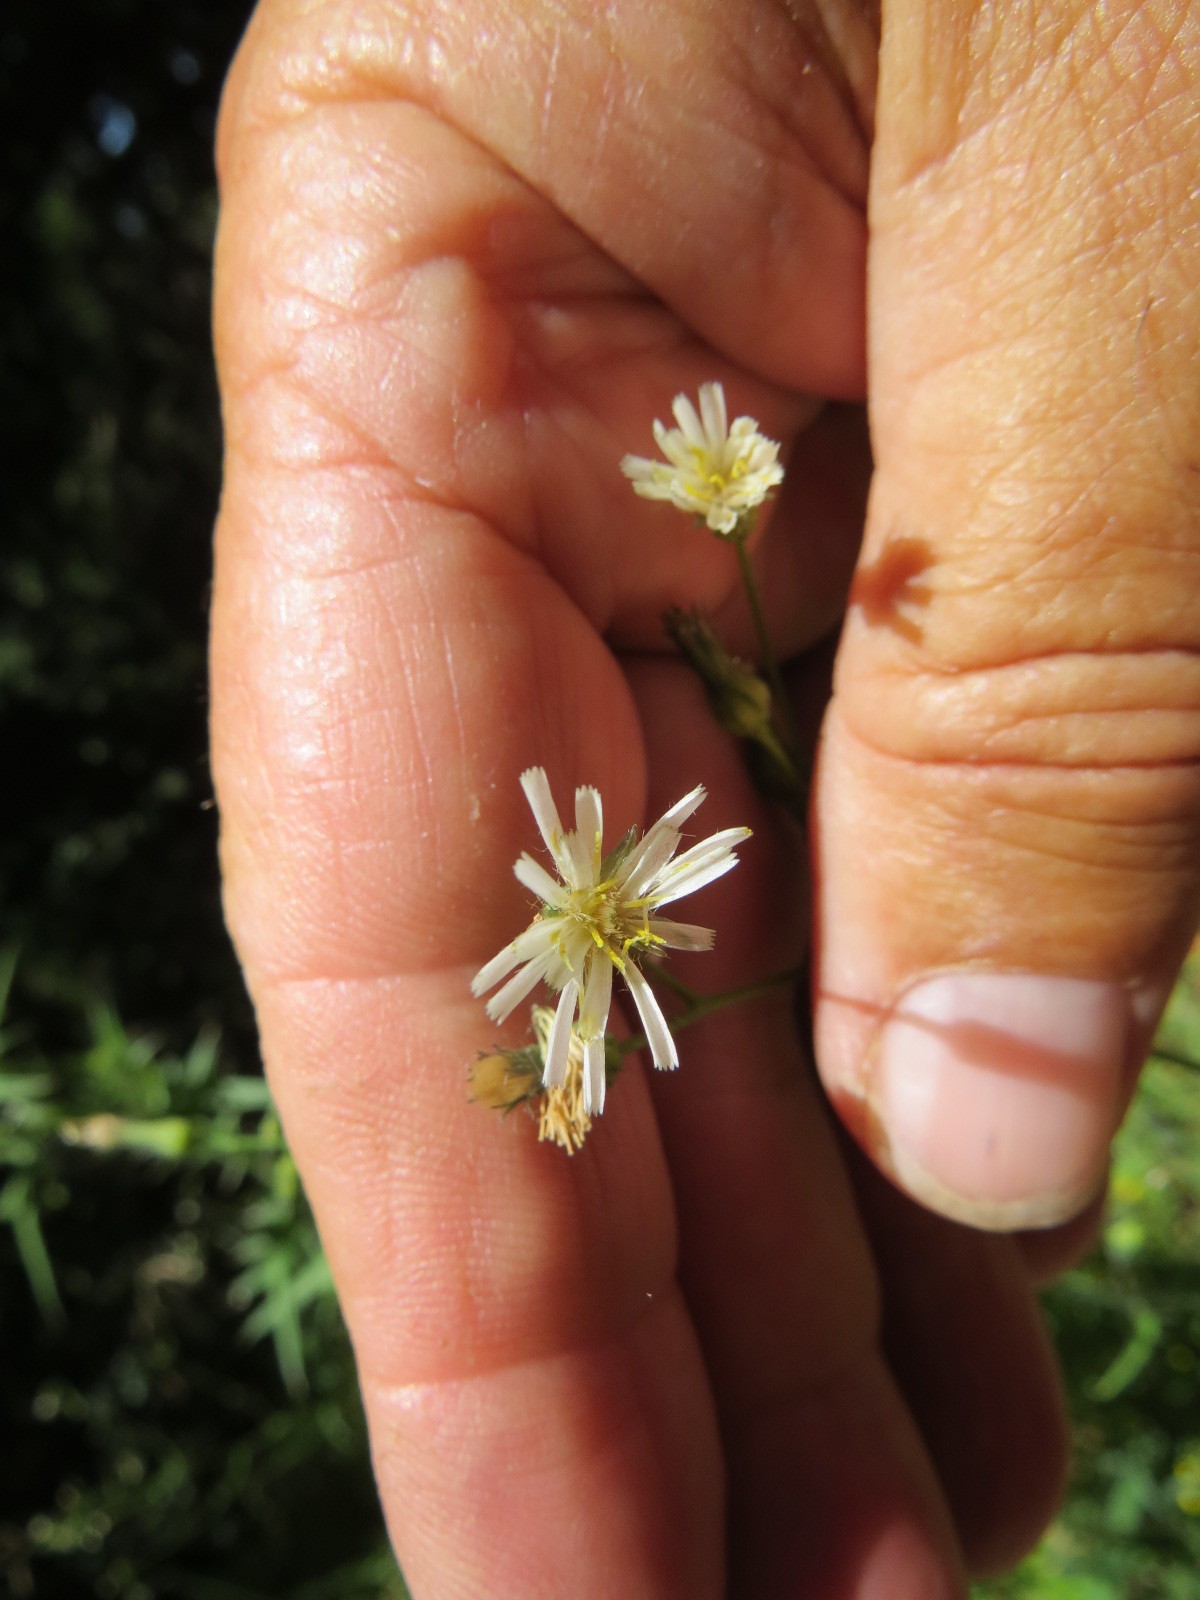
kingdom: Plantae
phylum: Tracheophyta
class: Magnoliopsida
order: Asterales
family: Asteraceae
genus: Hieracium
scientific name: Hieracium albiflorum
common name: White hawkweed
